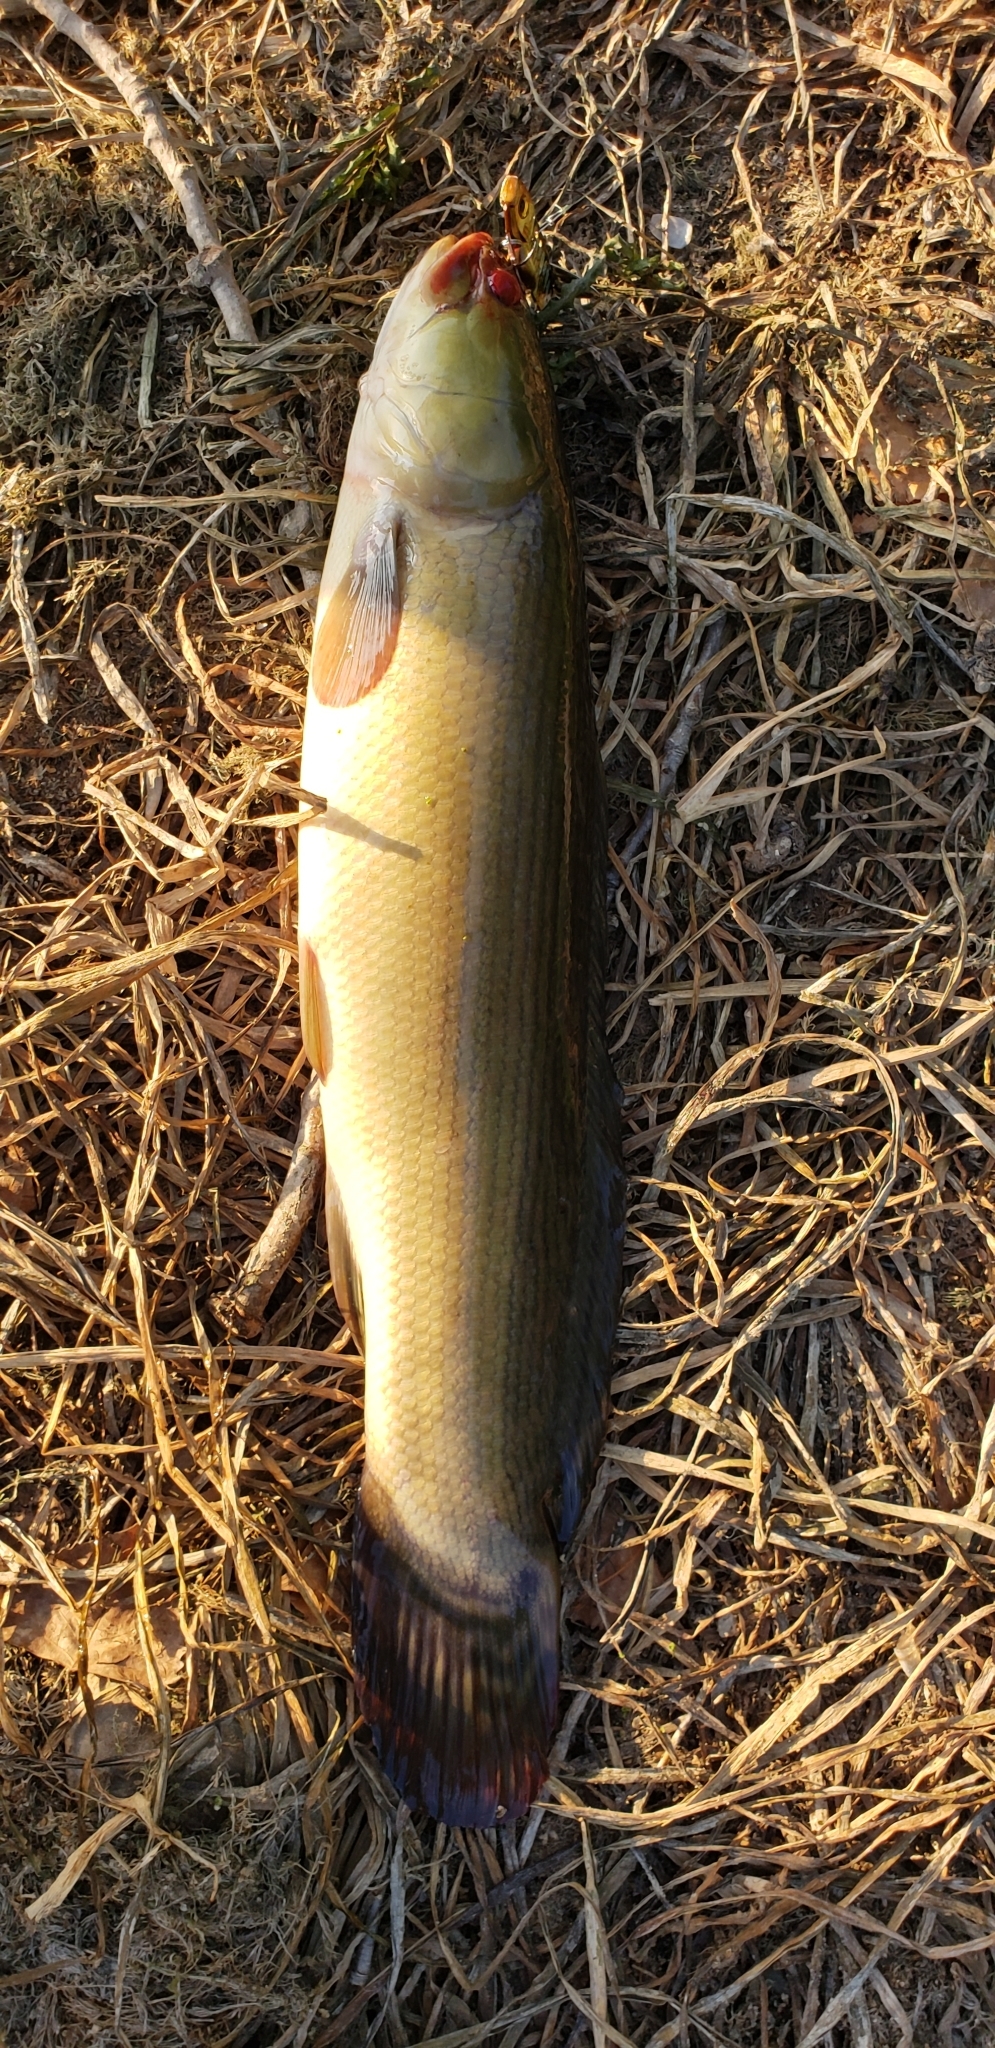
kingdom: Animalia
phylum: Chordata
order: Amiiformes
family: Amiidae
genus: Amia
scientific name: Amia calva
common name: Bowfin
